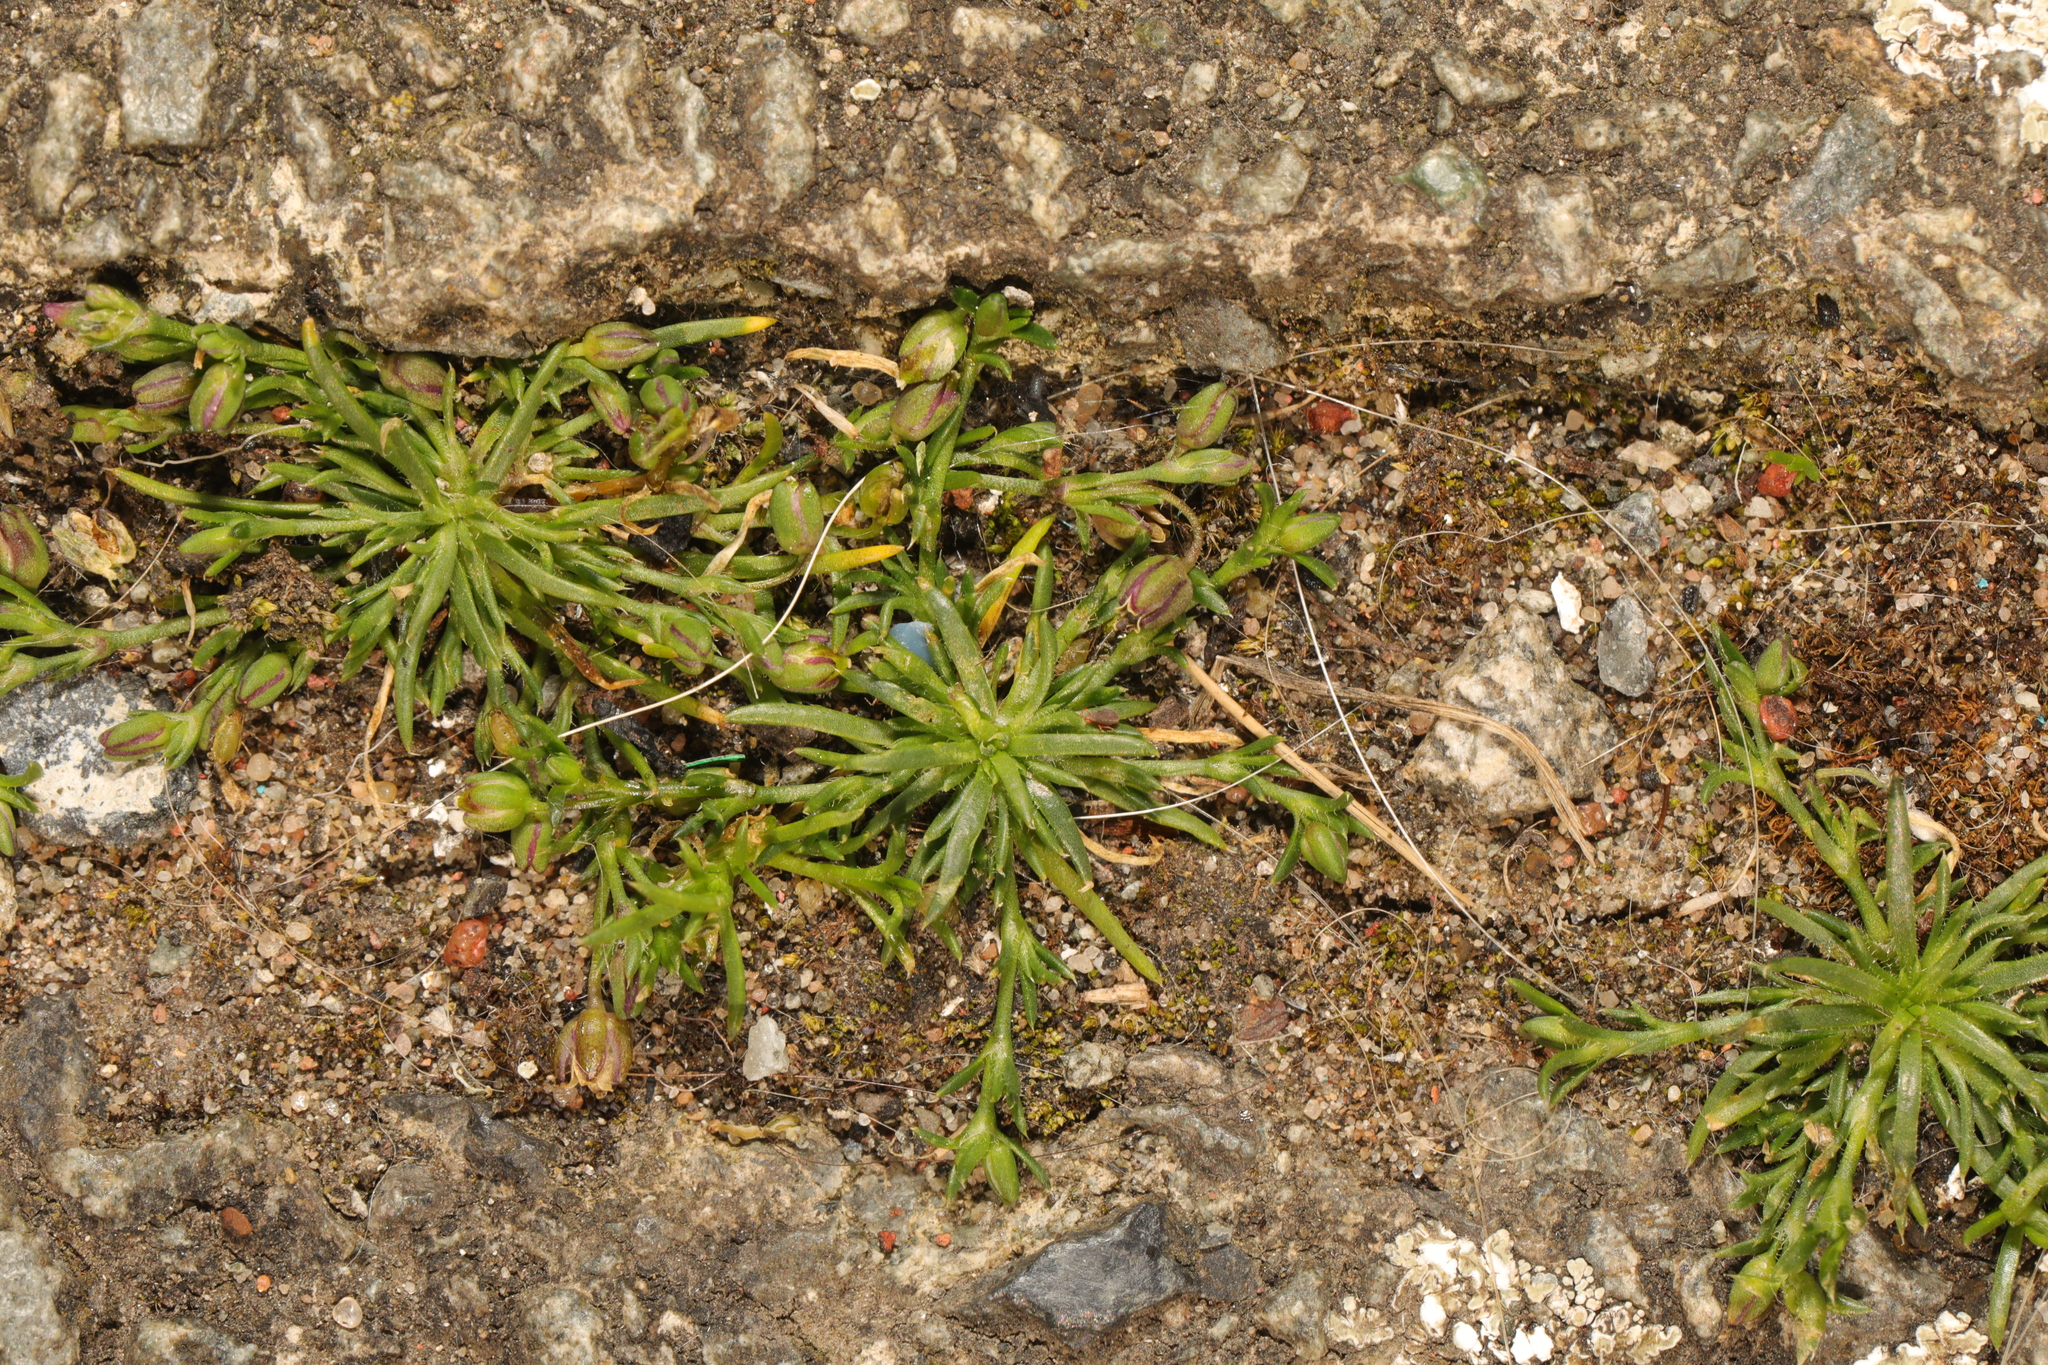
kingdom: Plantae
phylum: Tracheophyta
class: Magnoliopsida
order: Caryophyllales
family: Caryophyllaceae
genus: Sagina
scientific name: Sagina procumbens
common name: Procumbent pearlwort
